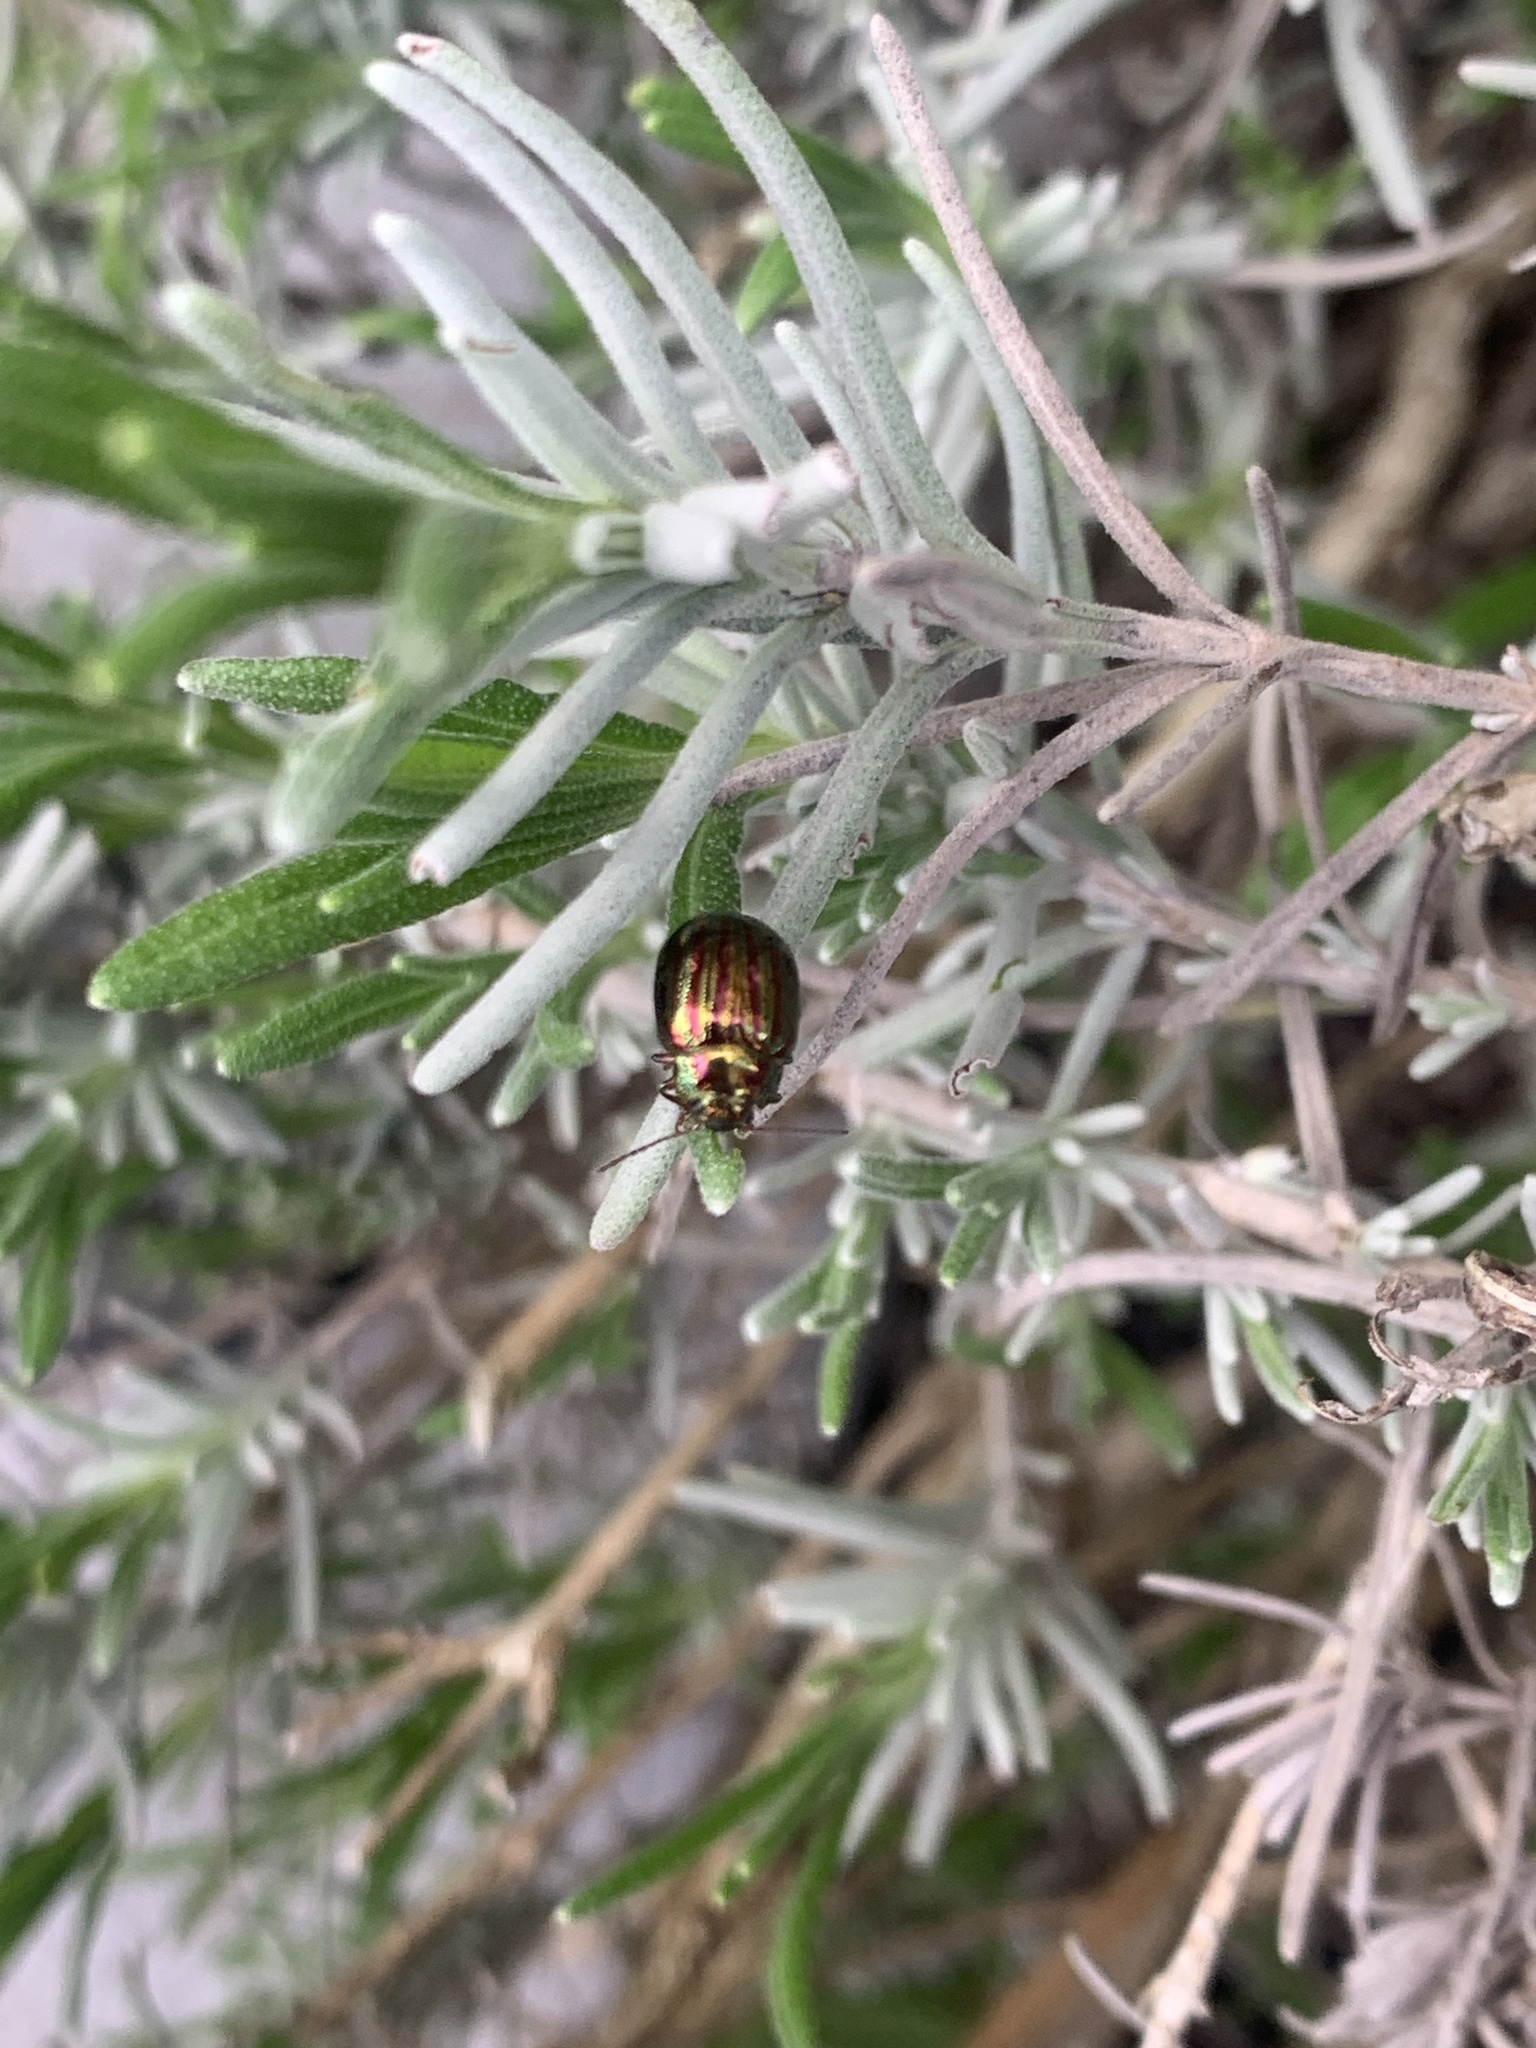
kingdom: Animalia
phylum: Arthropoda
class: Insecta
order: Coleoptera
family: Chrysomelidae
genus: Chrysolina
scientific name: Chrysolina americana
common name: Rosemary beetle
